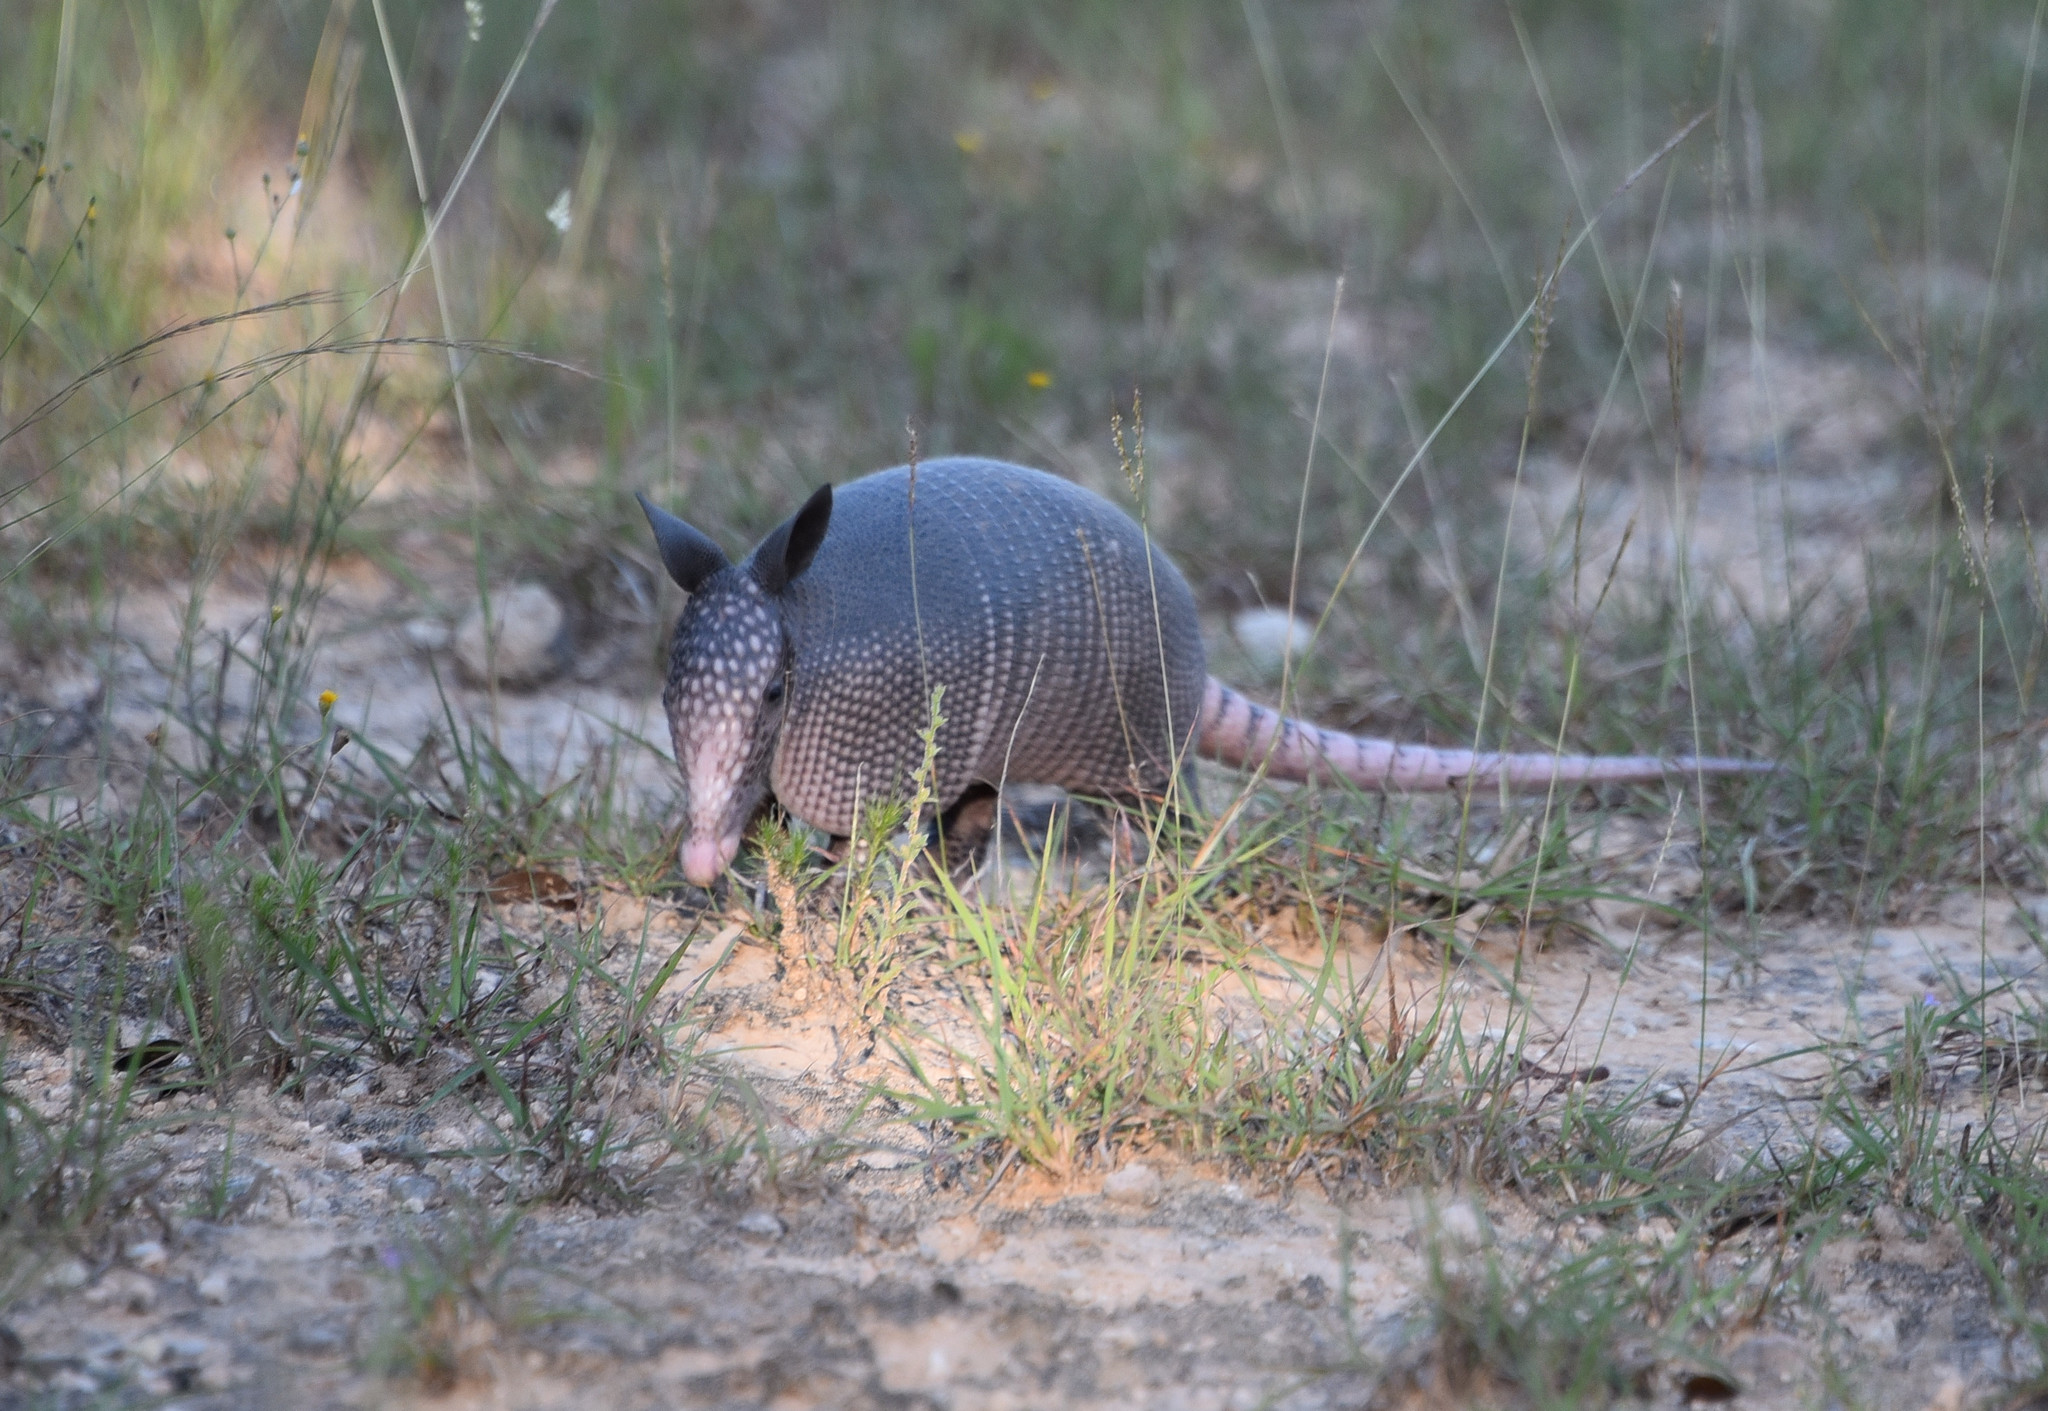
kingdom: Animalia
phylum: Chordata
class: Mammalia
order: Cingulata
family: Dasypodidae
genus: Dasypus
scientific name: Dasypus novemcinctus
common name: Nine-banded armadillo
